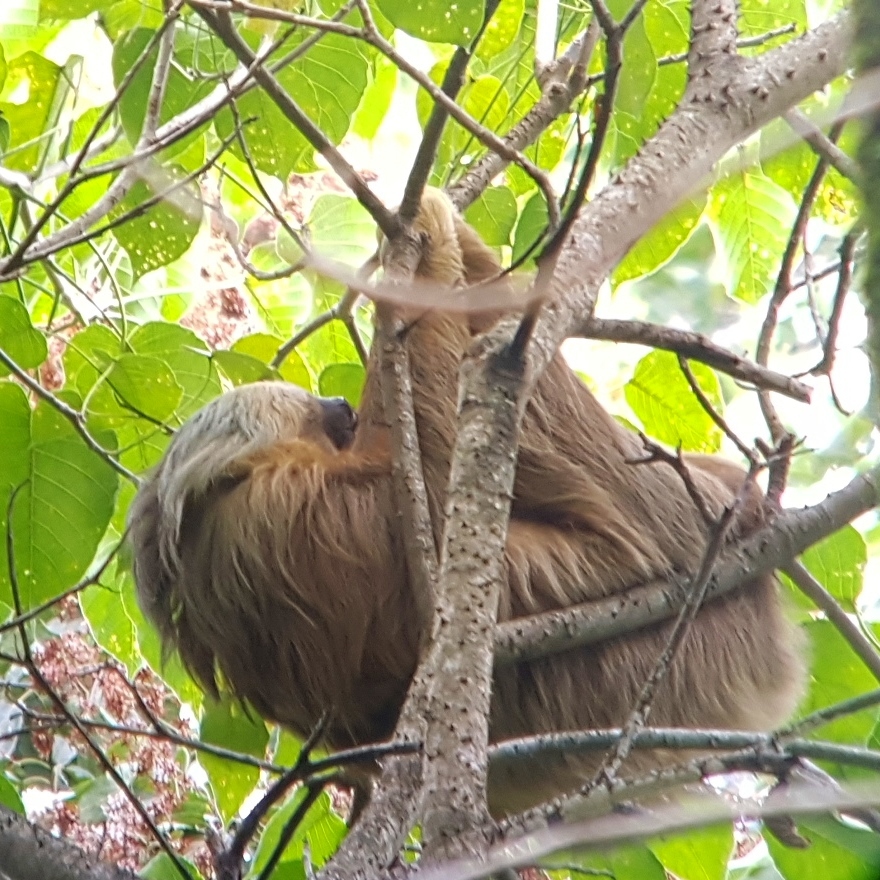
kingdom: Animalia
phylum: Chordata
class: Mammalia
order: Pilosa
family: Megalonychidae
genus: Choloepus
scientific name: Choloepus hoffmanni
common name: Hoffmann's two-toed sloth
